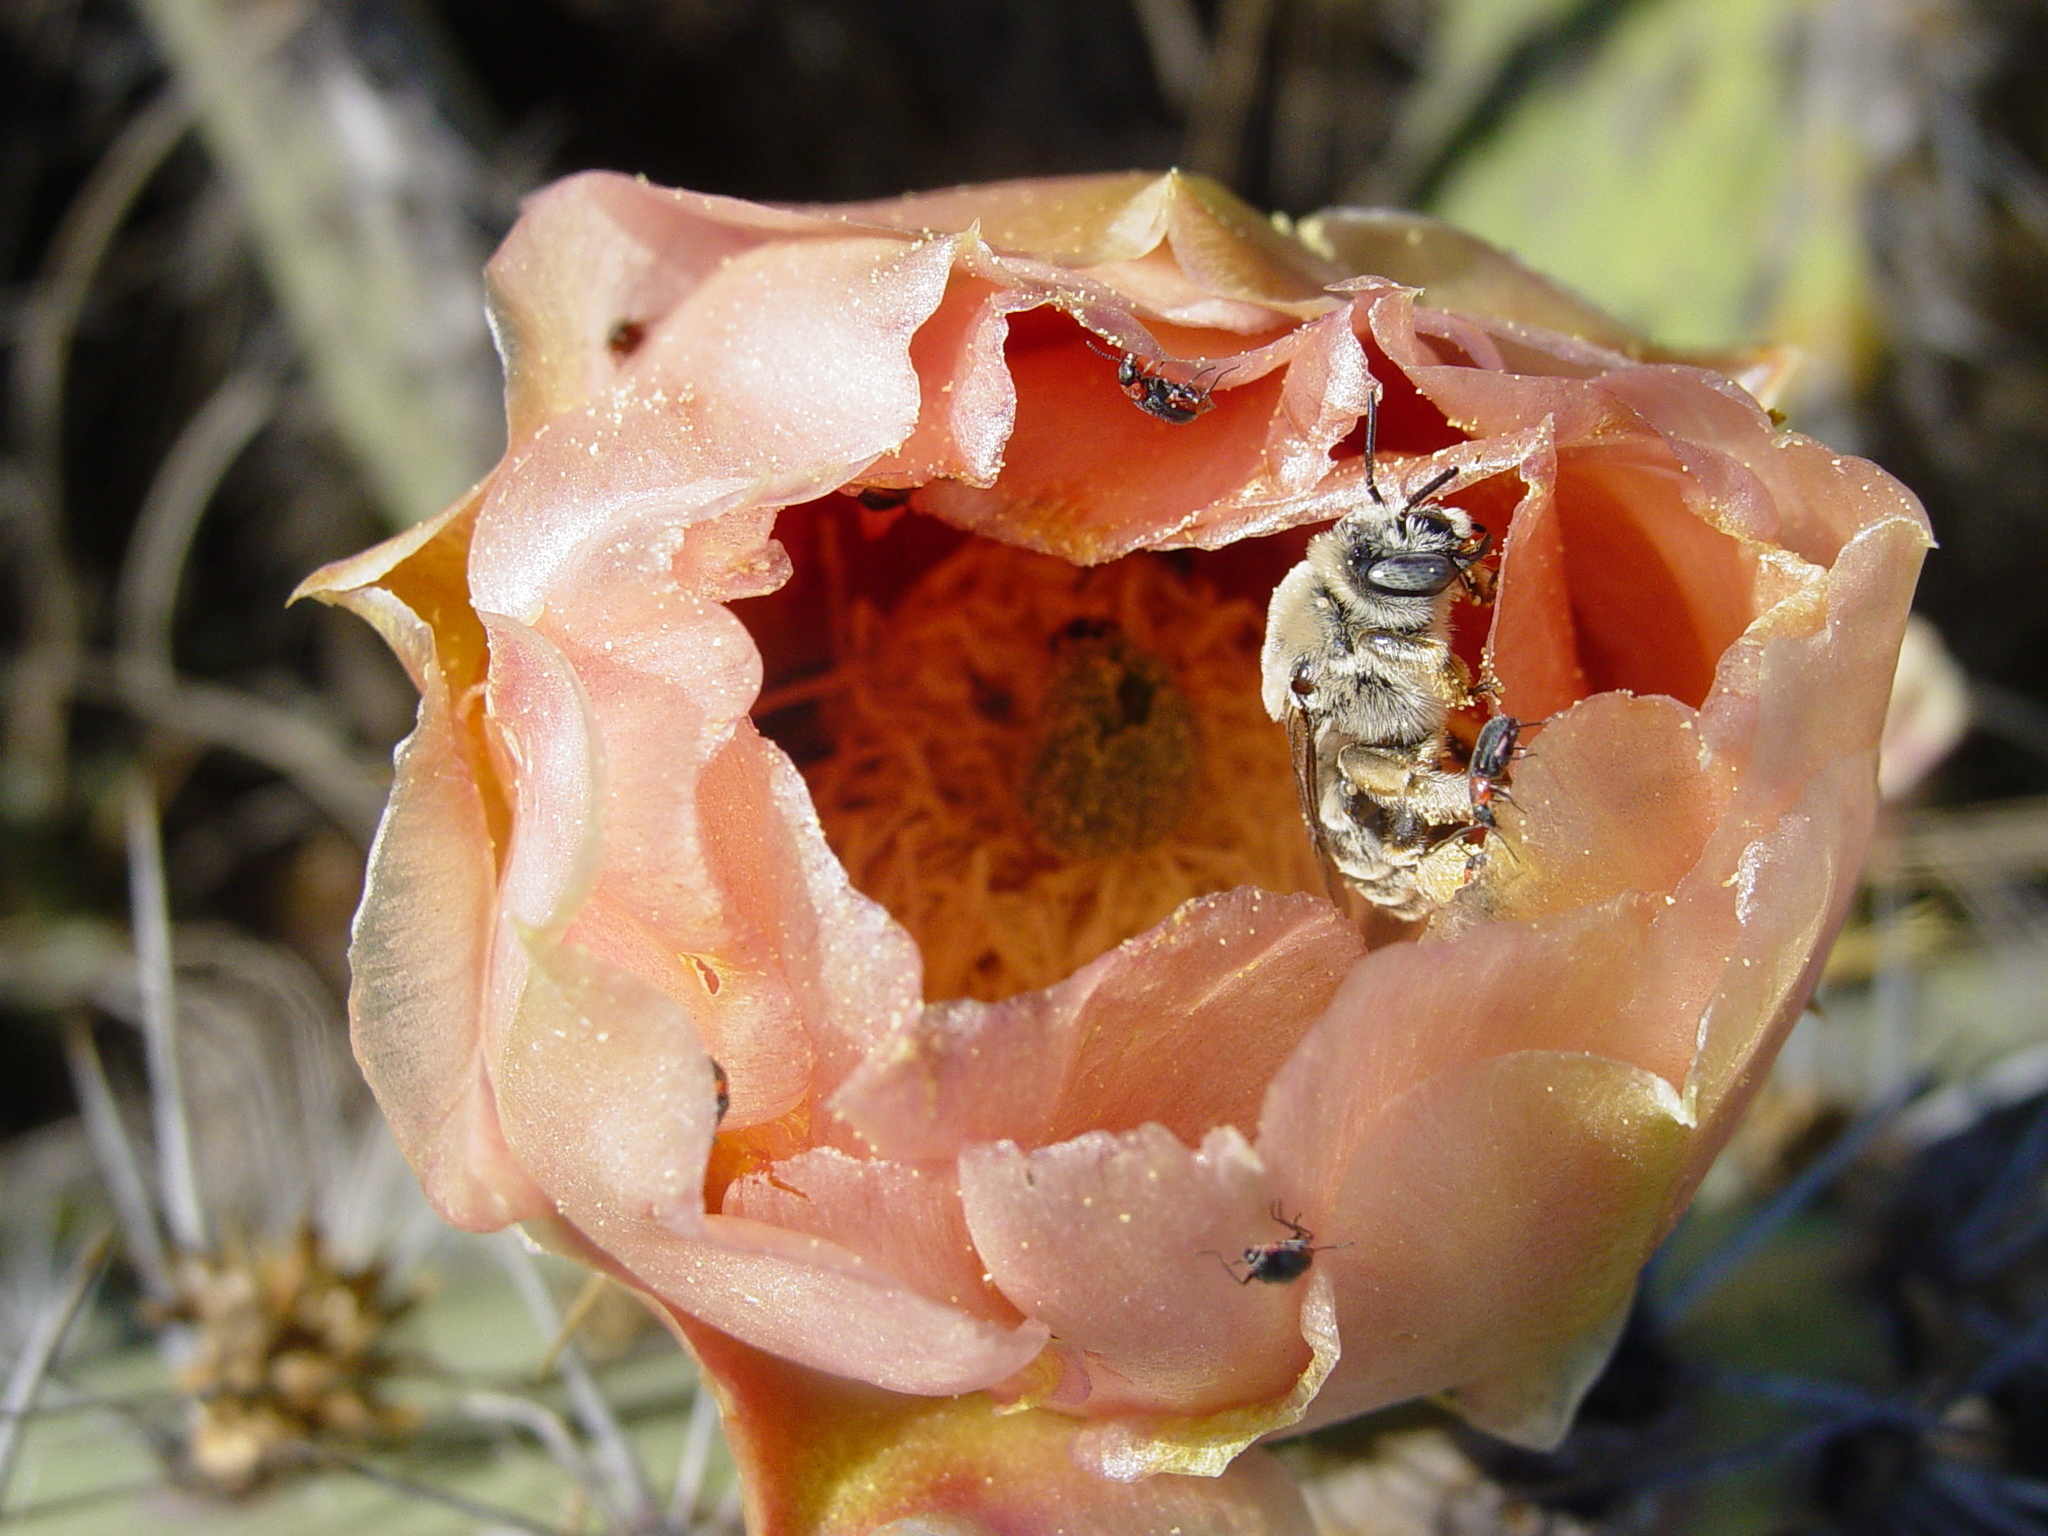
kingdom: Animalia
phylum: Arthropoda
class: Insecta
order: Hymenoptera
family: Apidae
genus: Diadasia
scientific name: Diadasia rinconis
